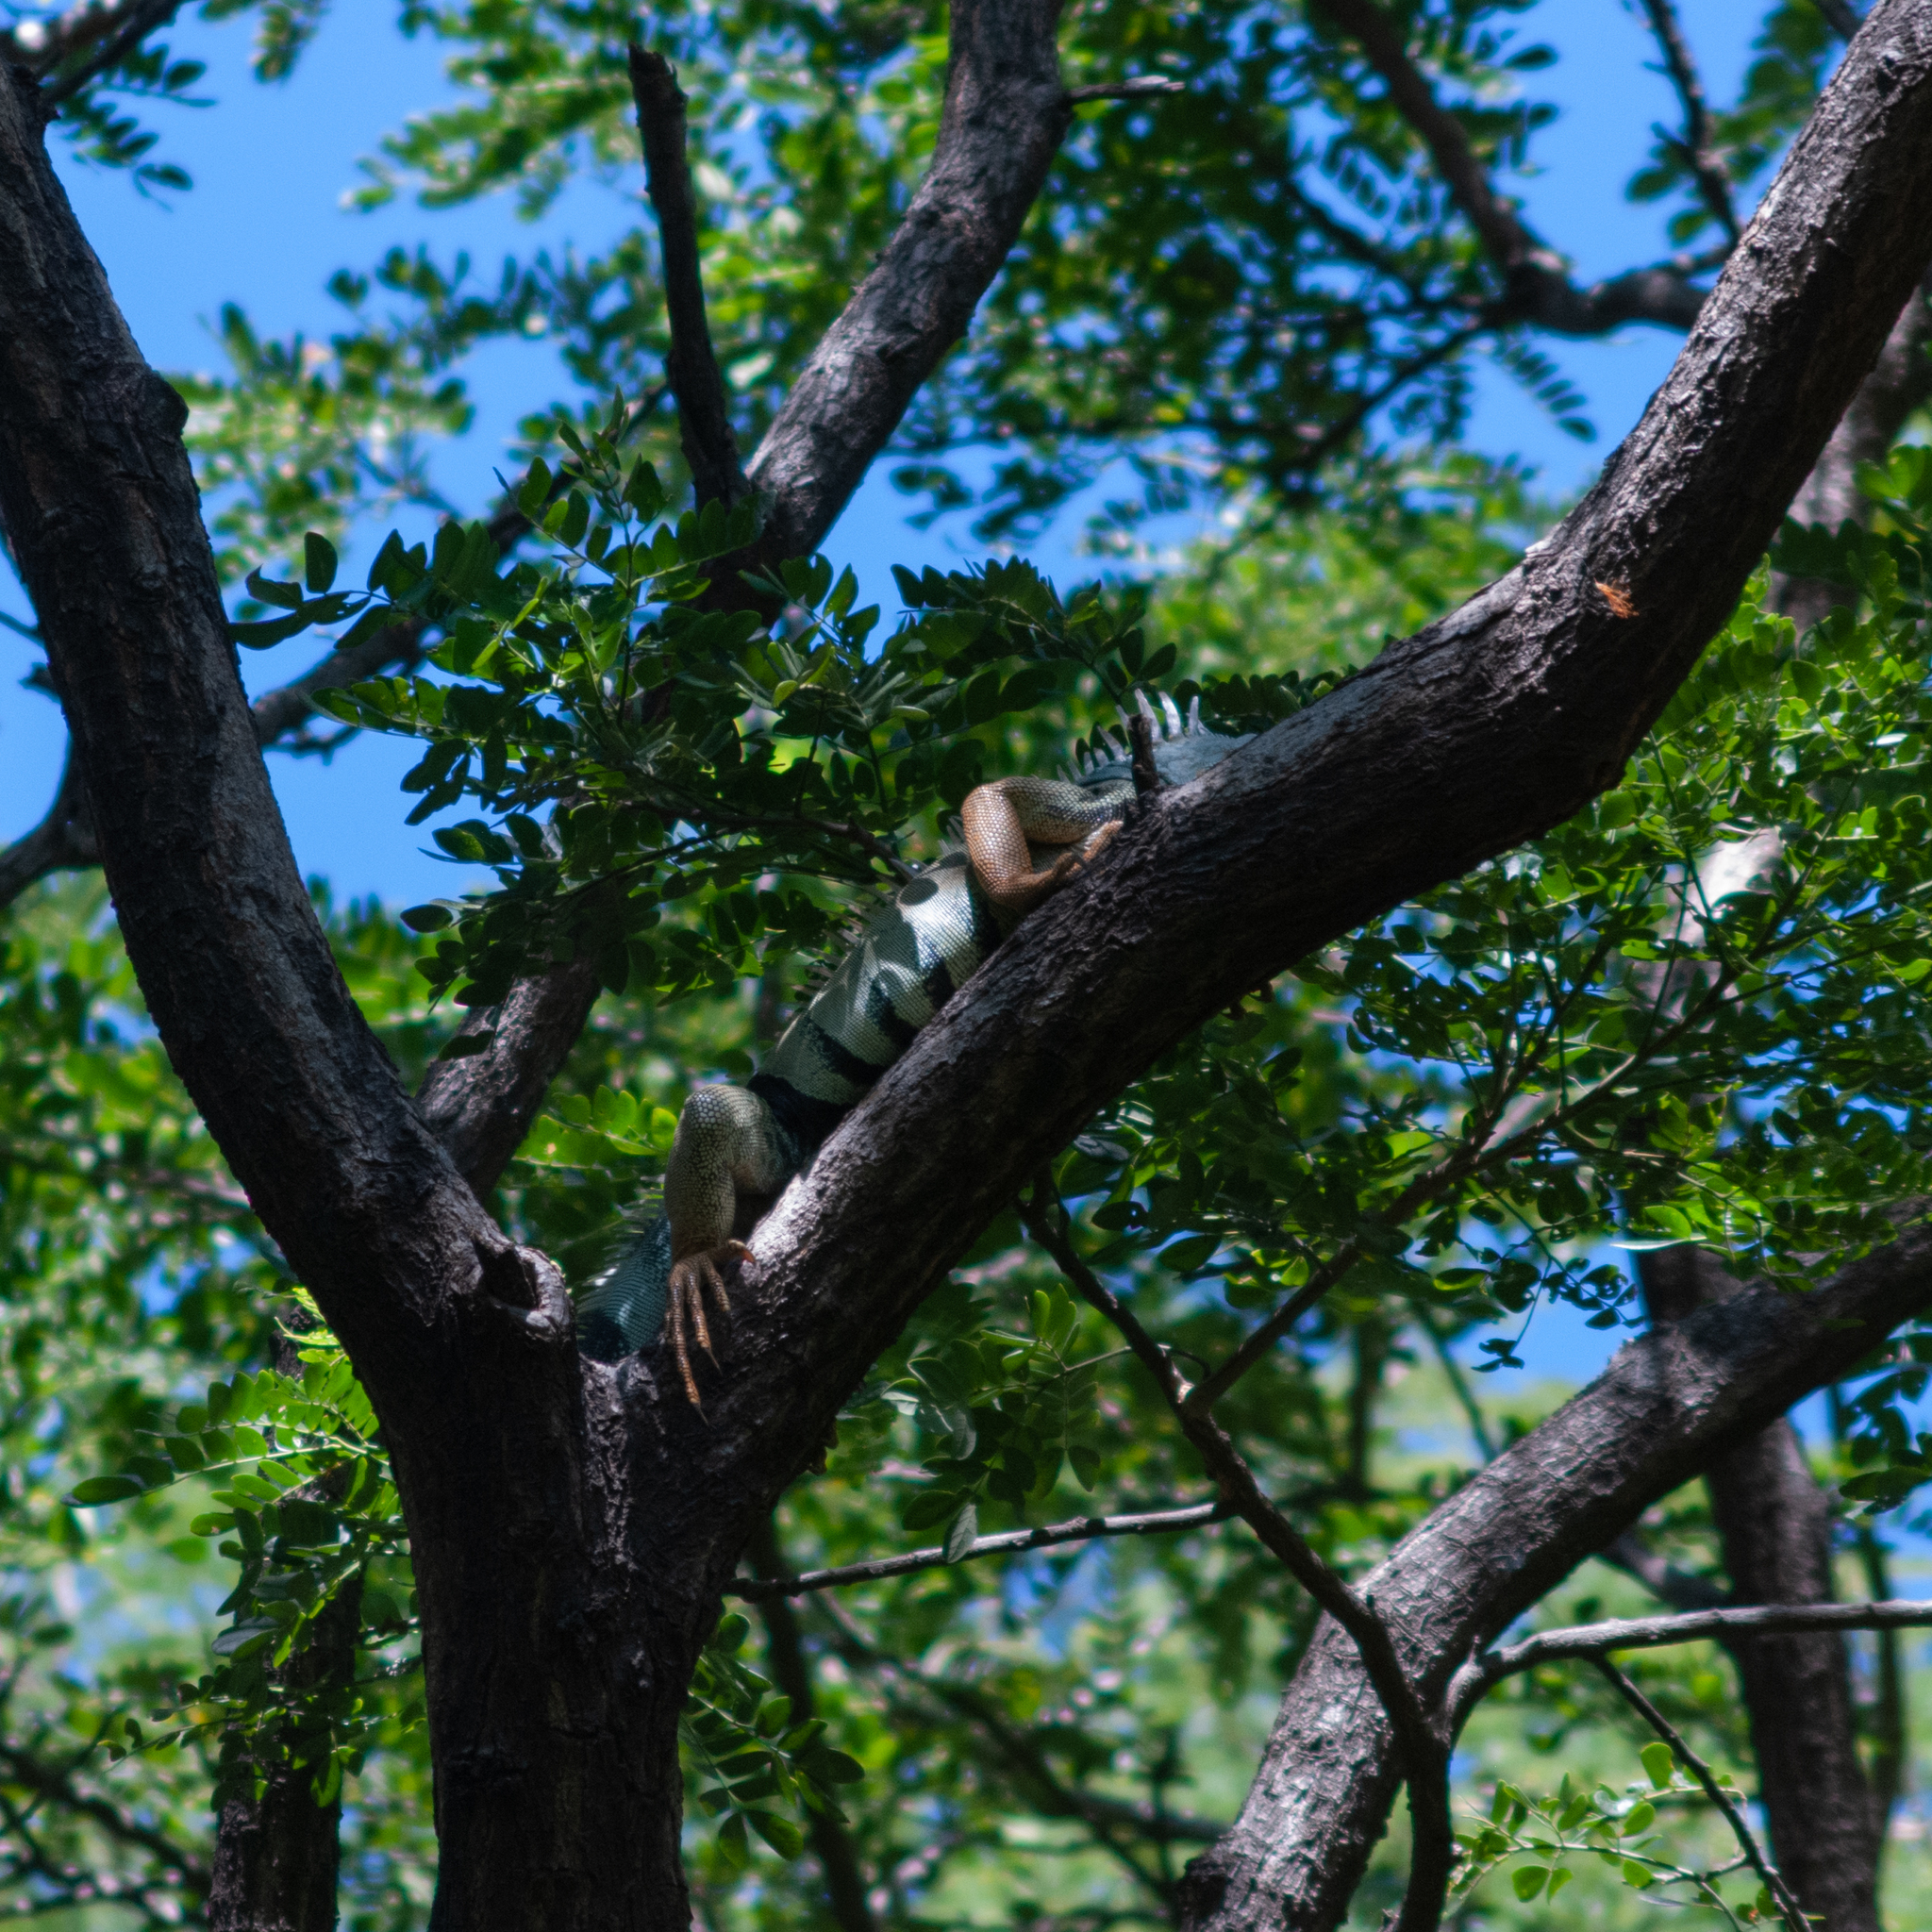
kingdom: Animalia
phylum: Chordata
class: Squamata
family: Iguanidae
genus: Iguana
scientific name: Iguana iguana
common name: Green iguana
